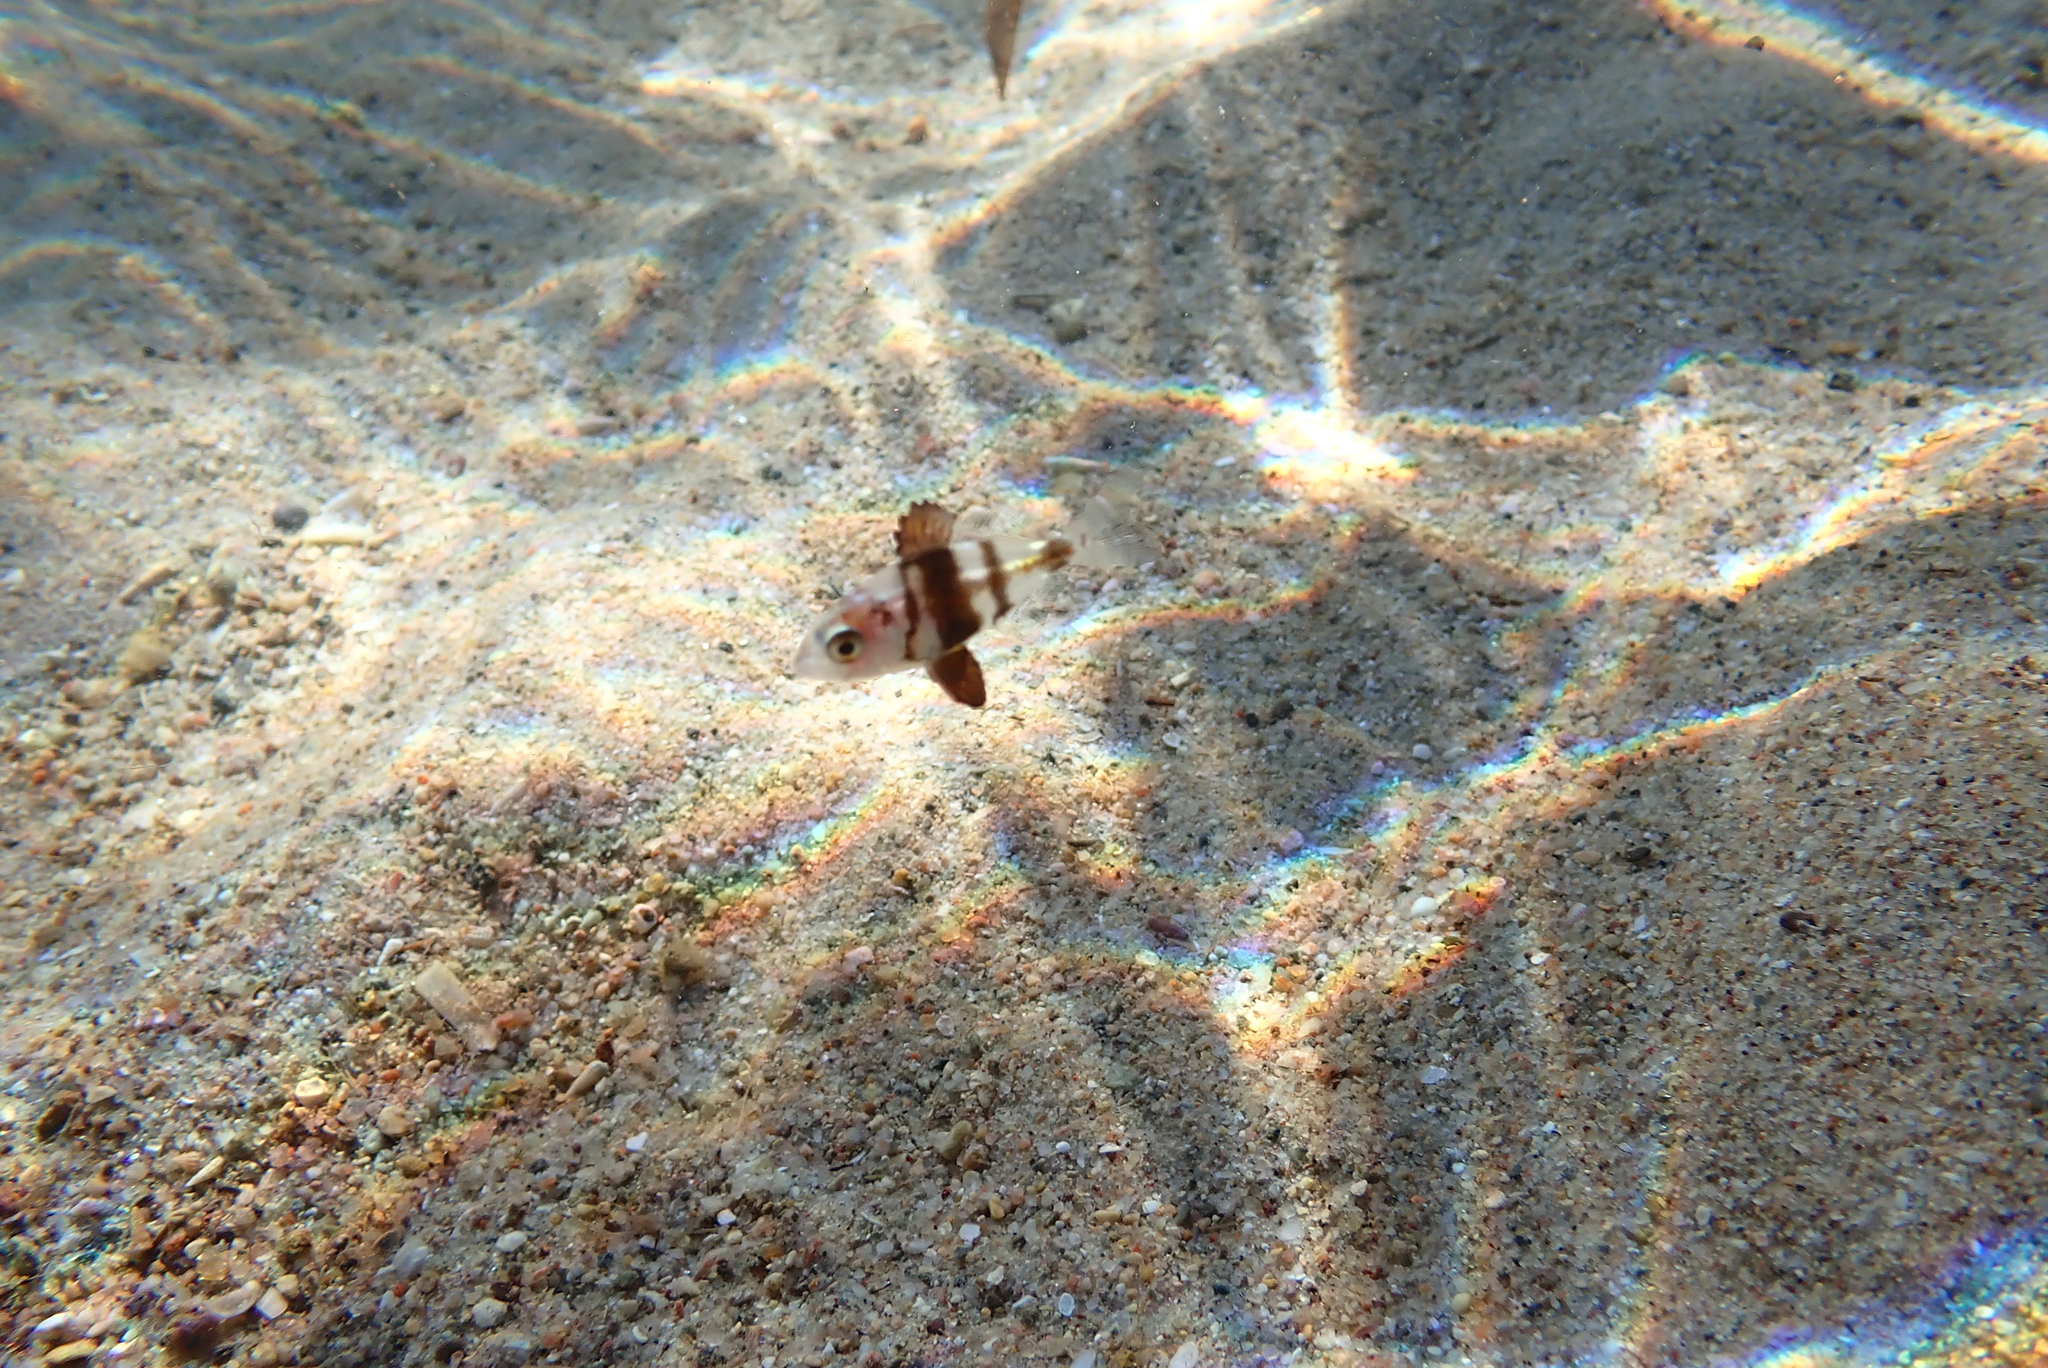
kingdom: Animalia
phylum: Chordata
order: Perciformes
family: Sparidae
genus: Diplodus
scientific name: Diplodus puntazzo
